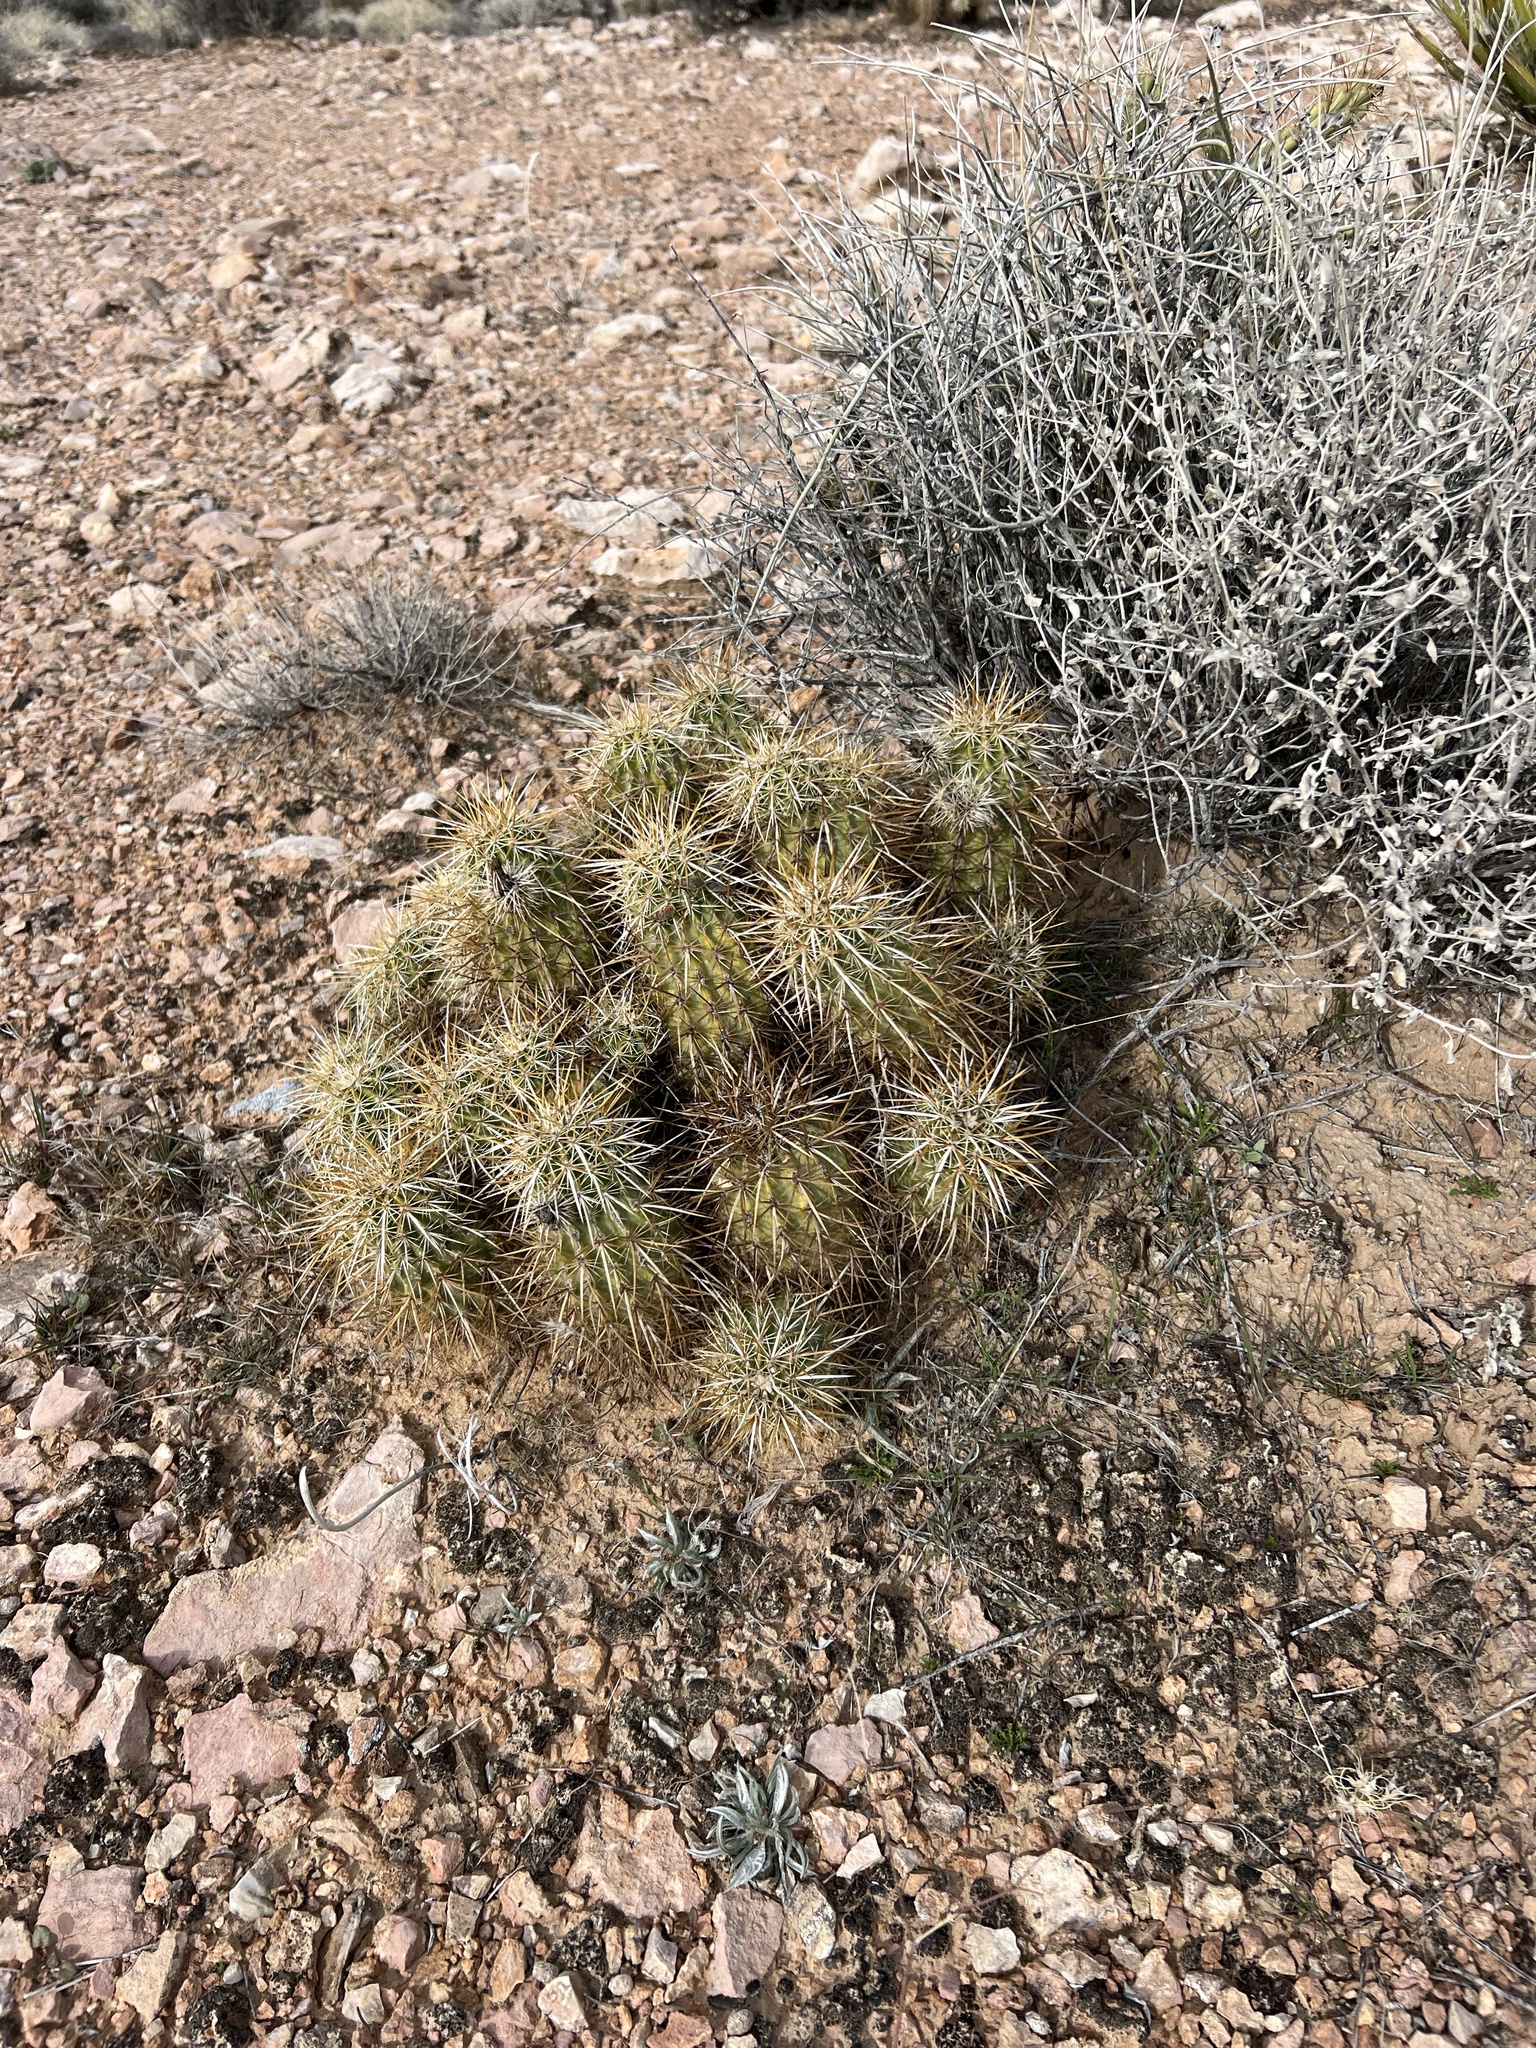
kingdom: Plantae
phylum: Tracheophyta
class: Magnoliopsida
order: Caryophyllales
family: Cactaceae
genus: Echinocereus
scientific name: Echinocereus engelmannii
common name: Engelmann's hedgehog cactus
